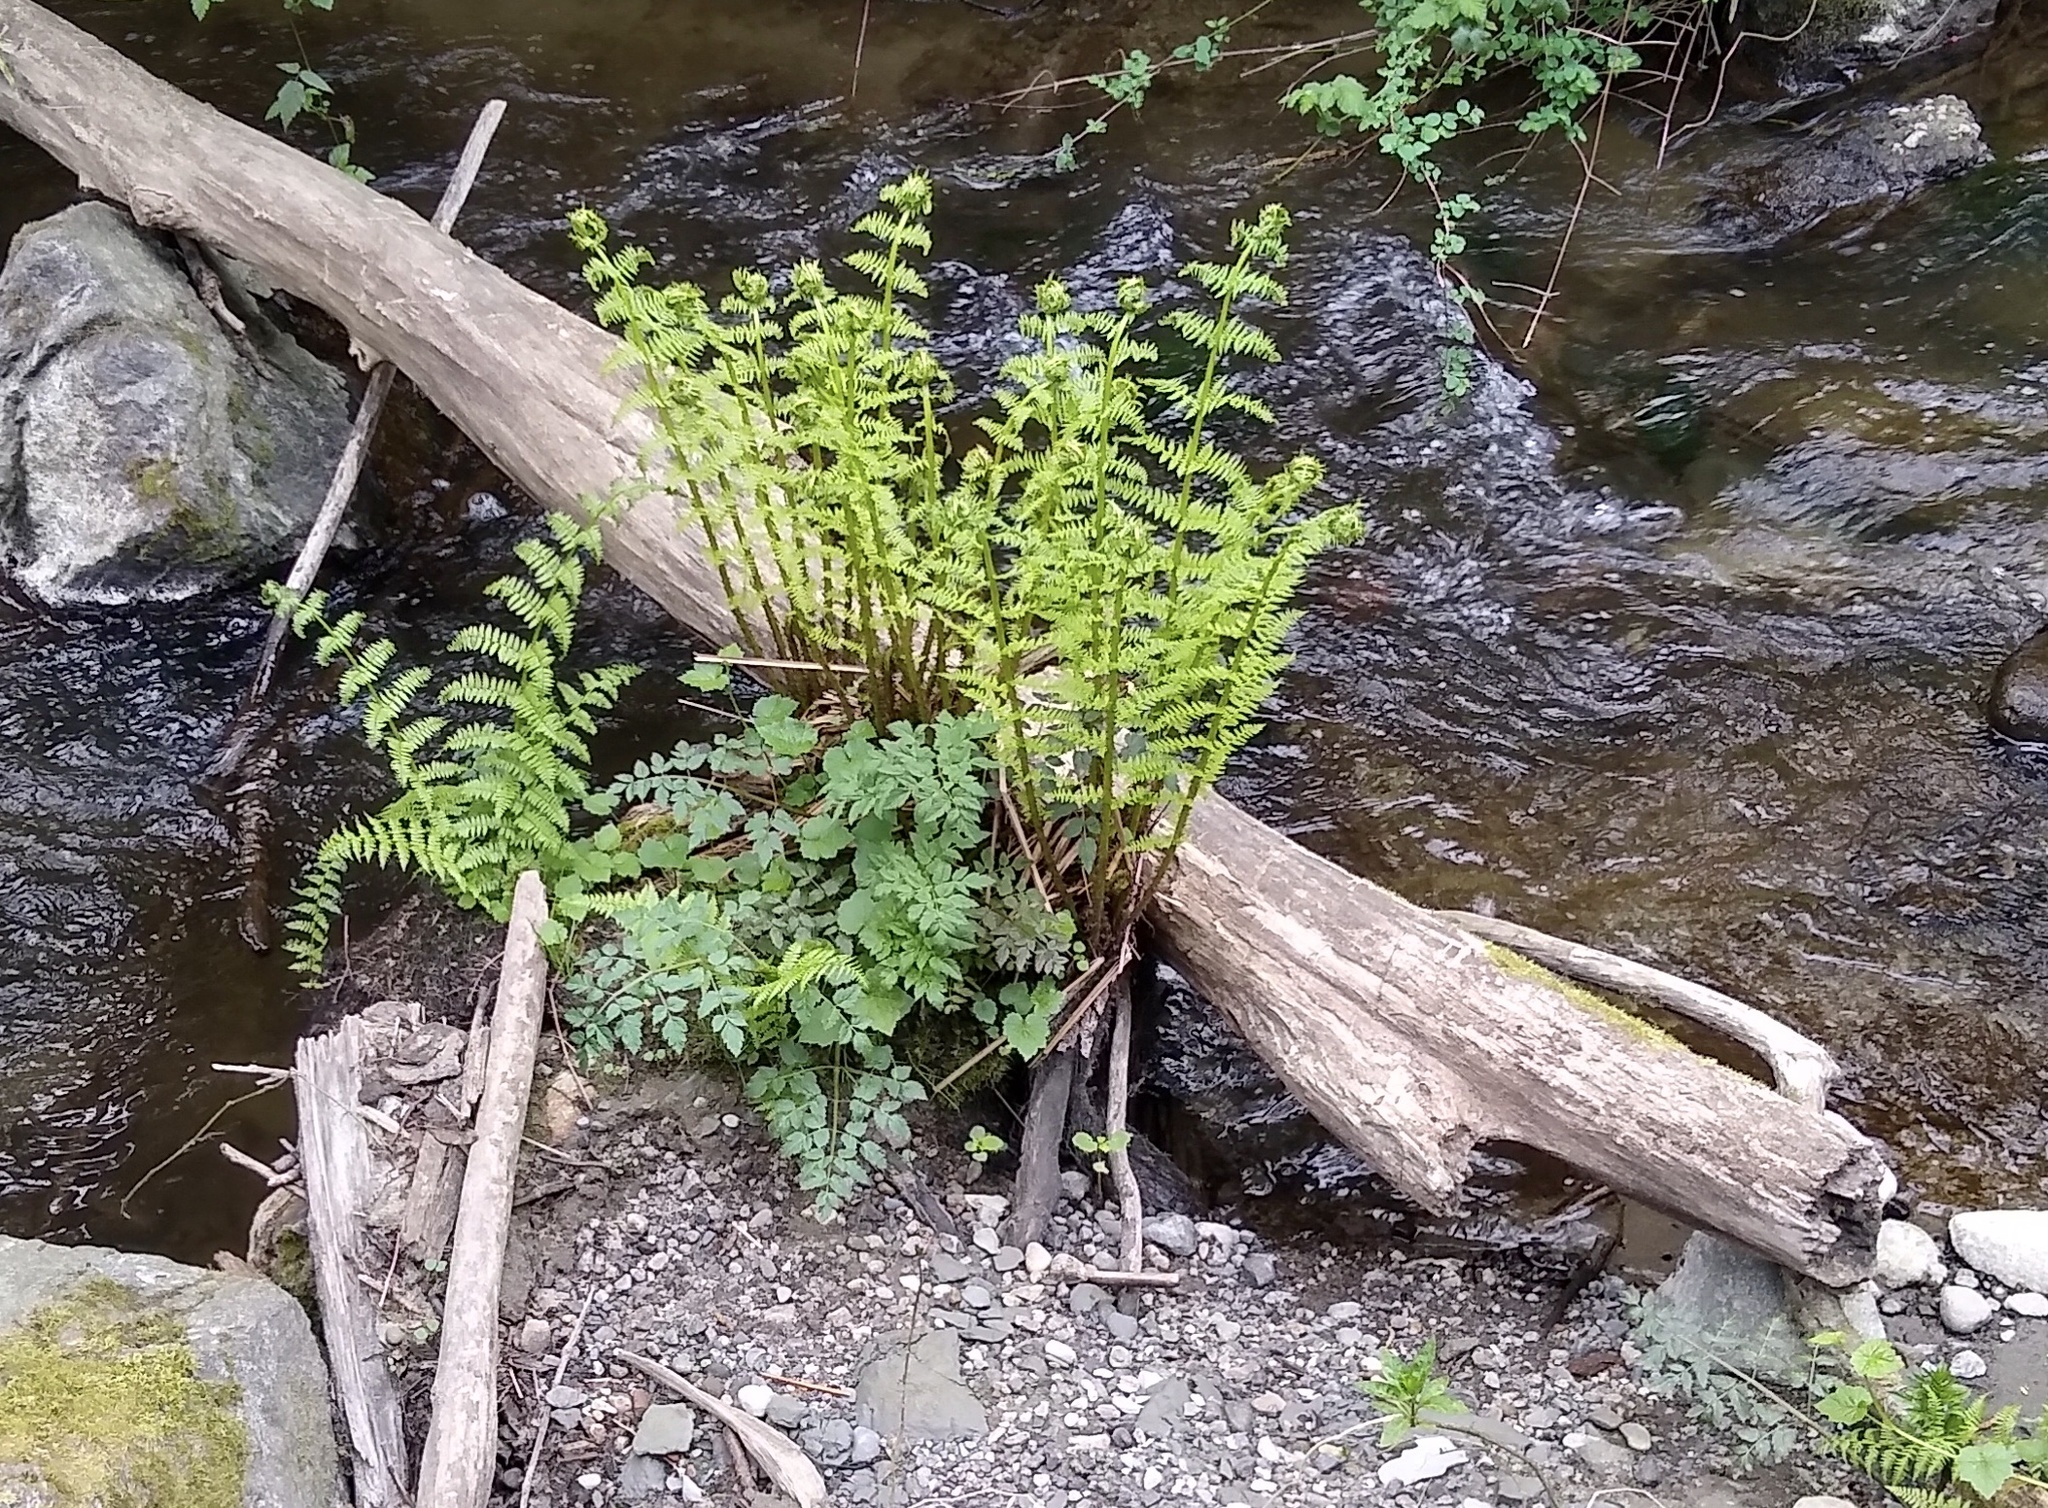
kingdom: Plantae
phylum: Tracheophyta
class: Polypodiopsida
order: Polypodiales
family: Athyriaceae
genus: Athyrium
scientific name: Athyrium cyclosorum
